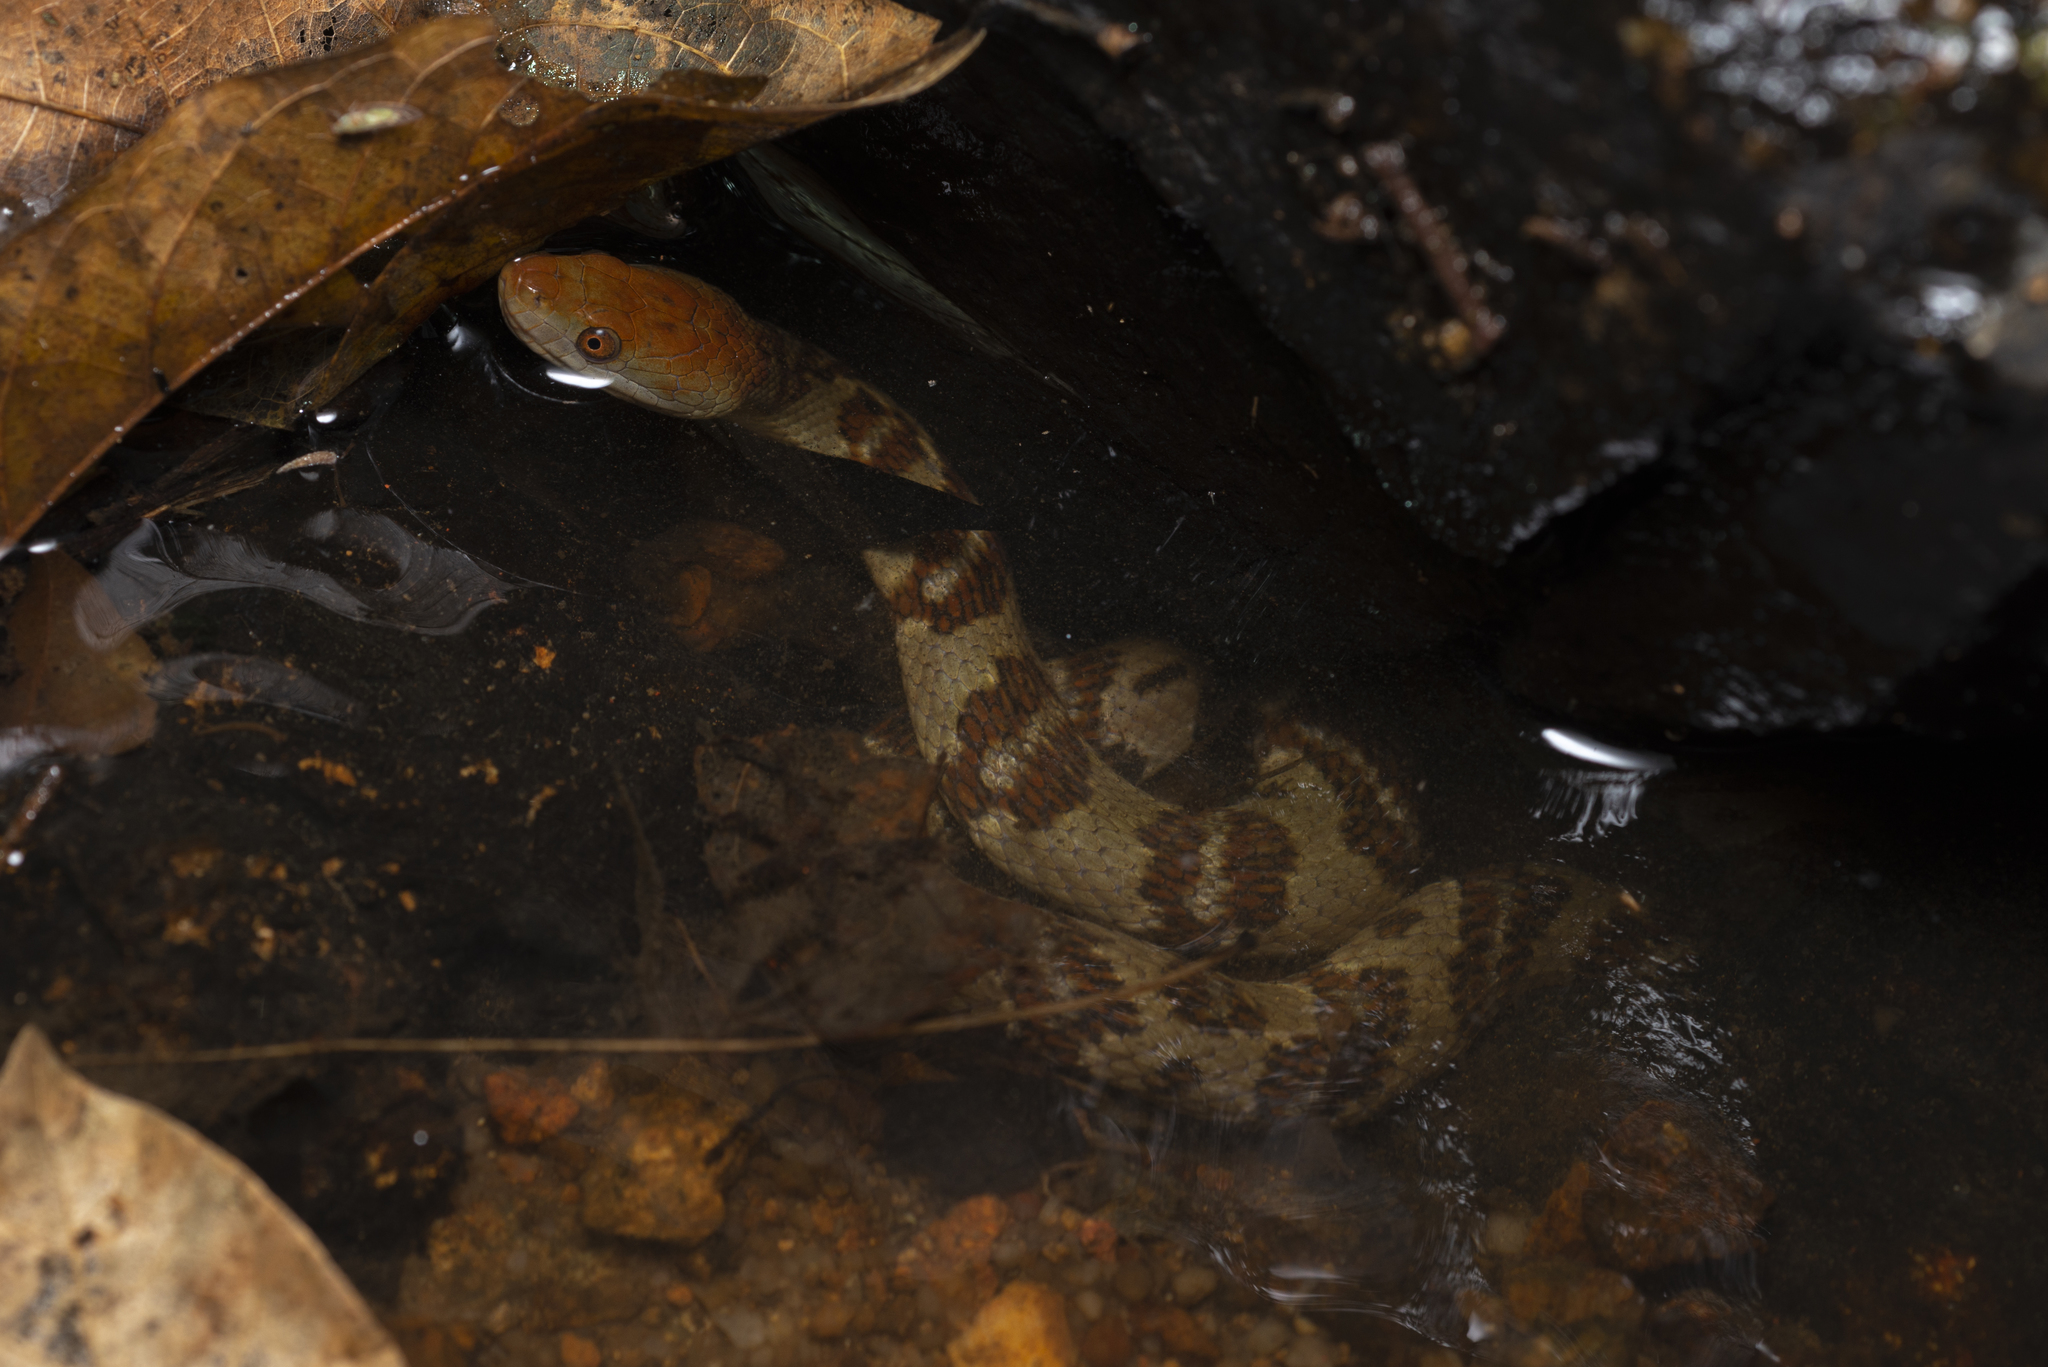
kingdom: Animalia
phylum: Chordata
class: Squamata
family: Colubridae
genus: Trimerodytes
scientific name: Trimerodytes aequifasciatus
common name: Asiatic water snake
